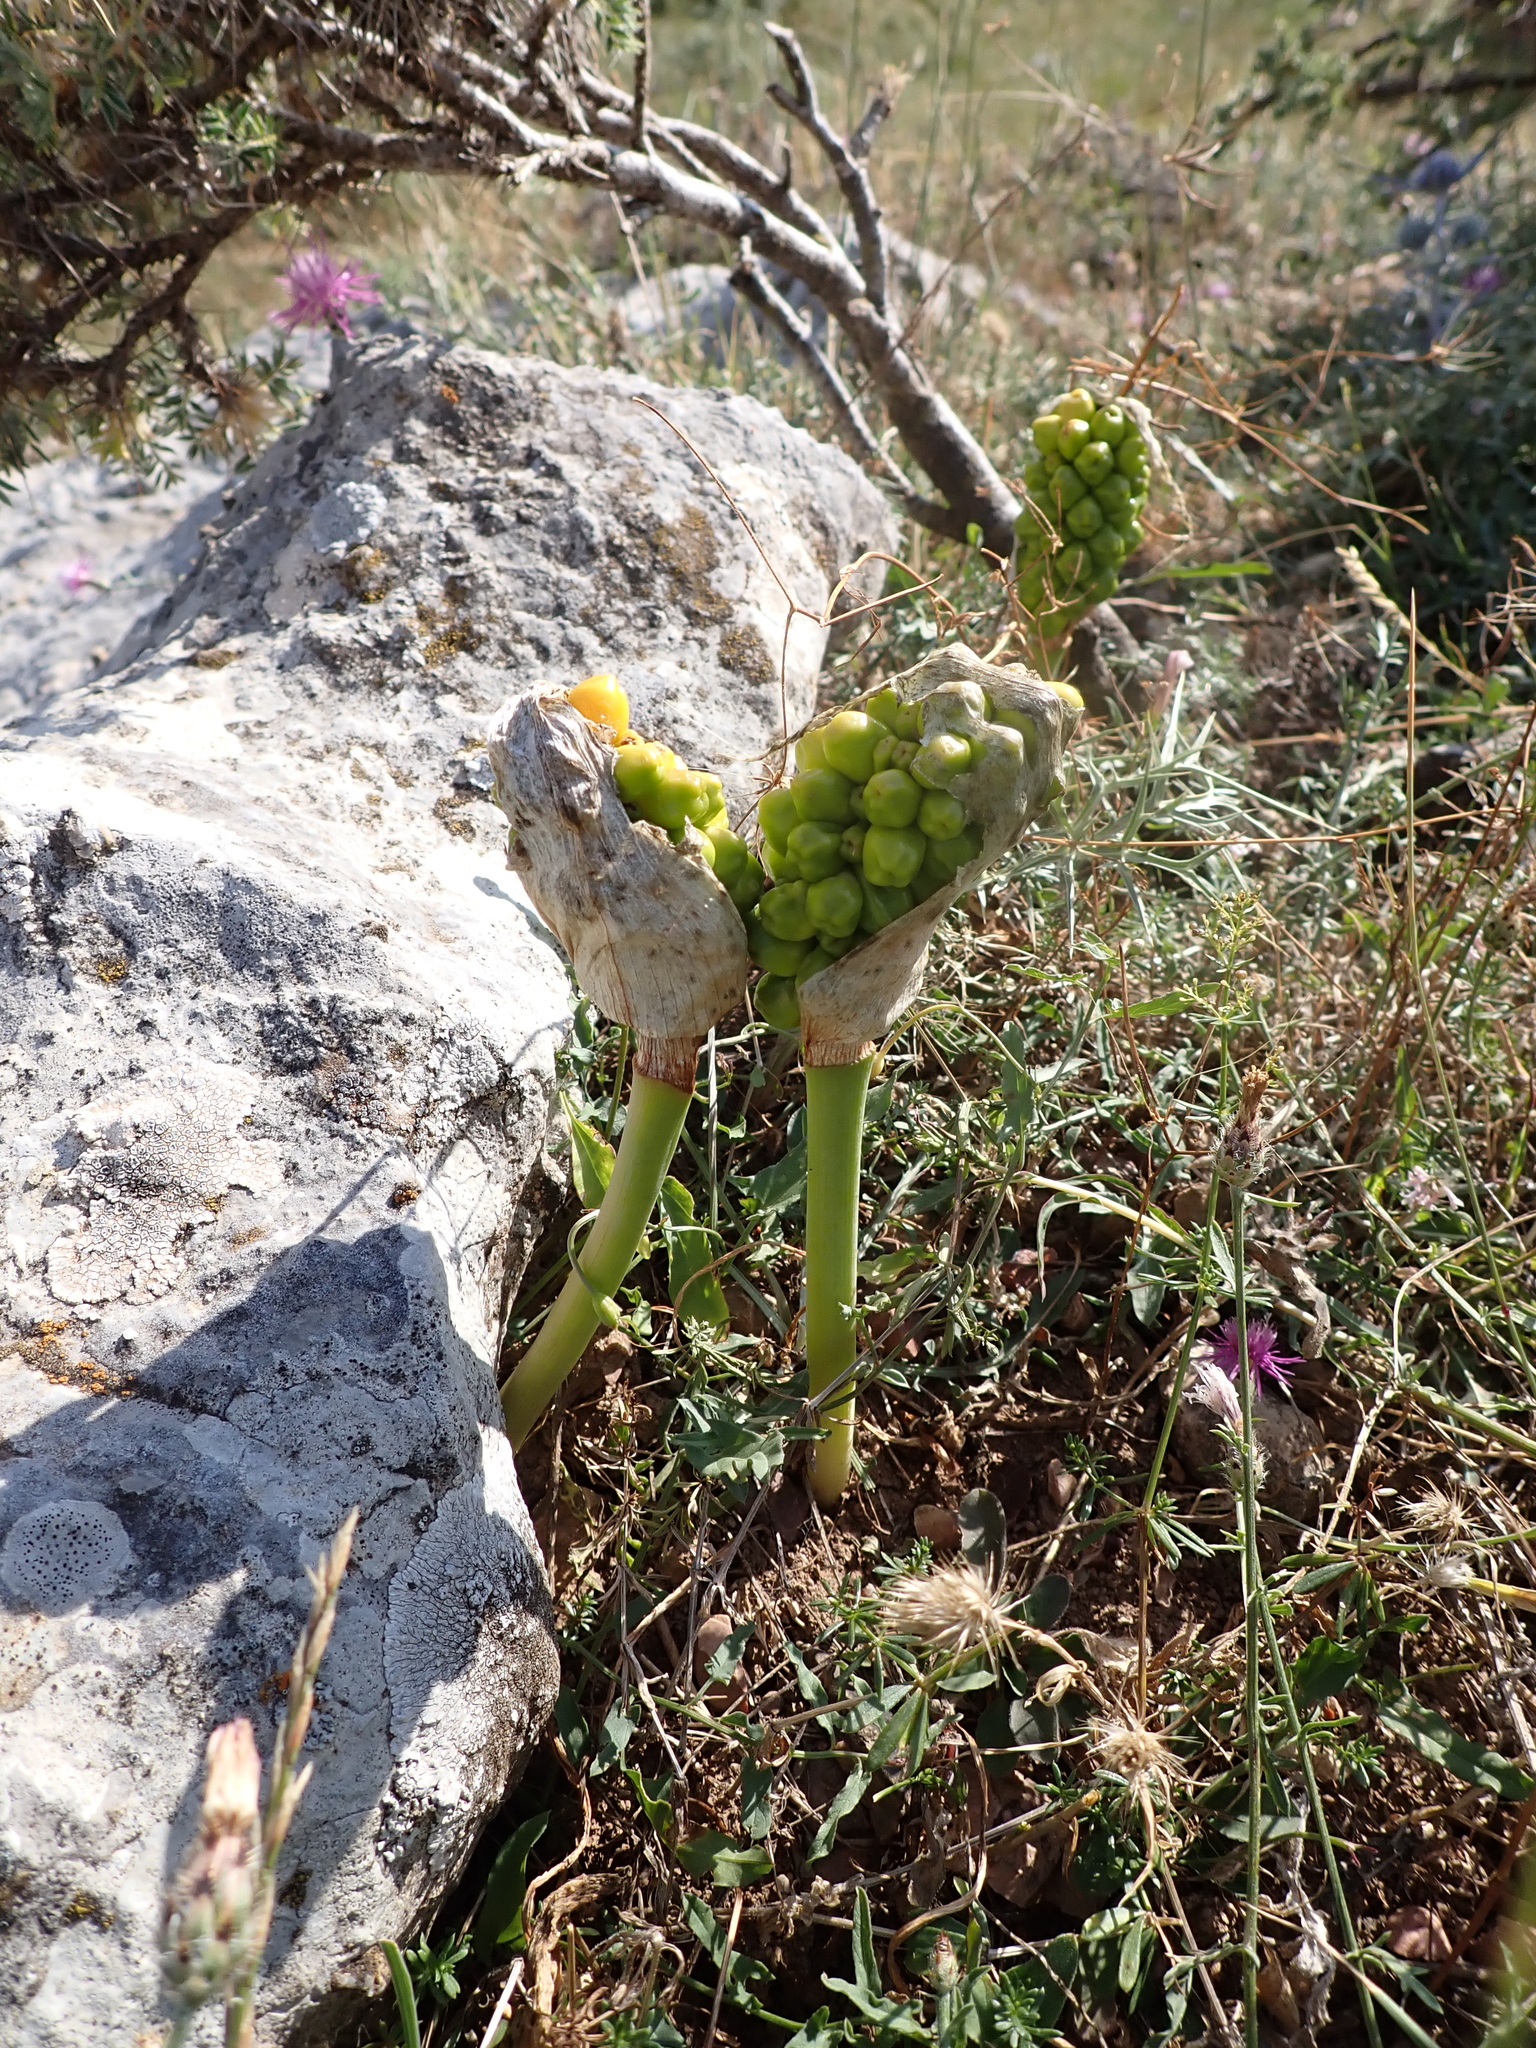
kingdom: Plantae
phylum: Tracheophyta
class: Liliopsida
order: Alismatales
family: Araceae
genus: Arum
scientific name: Arum italicum
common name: Italian lords-and-ladies
